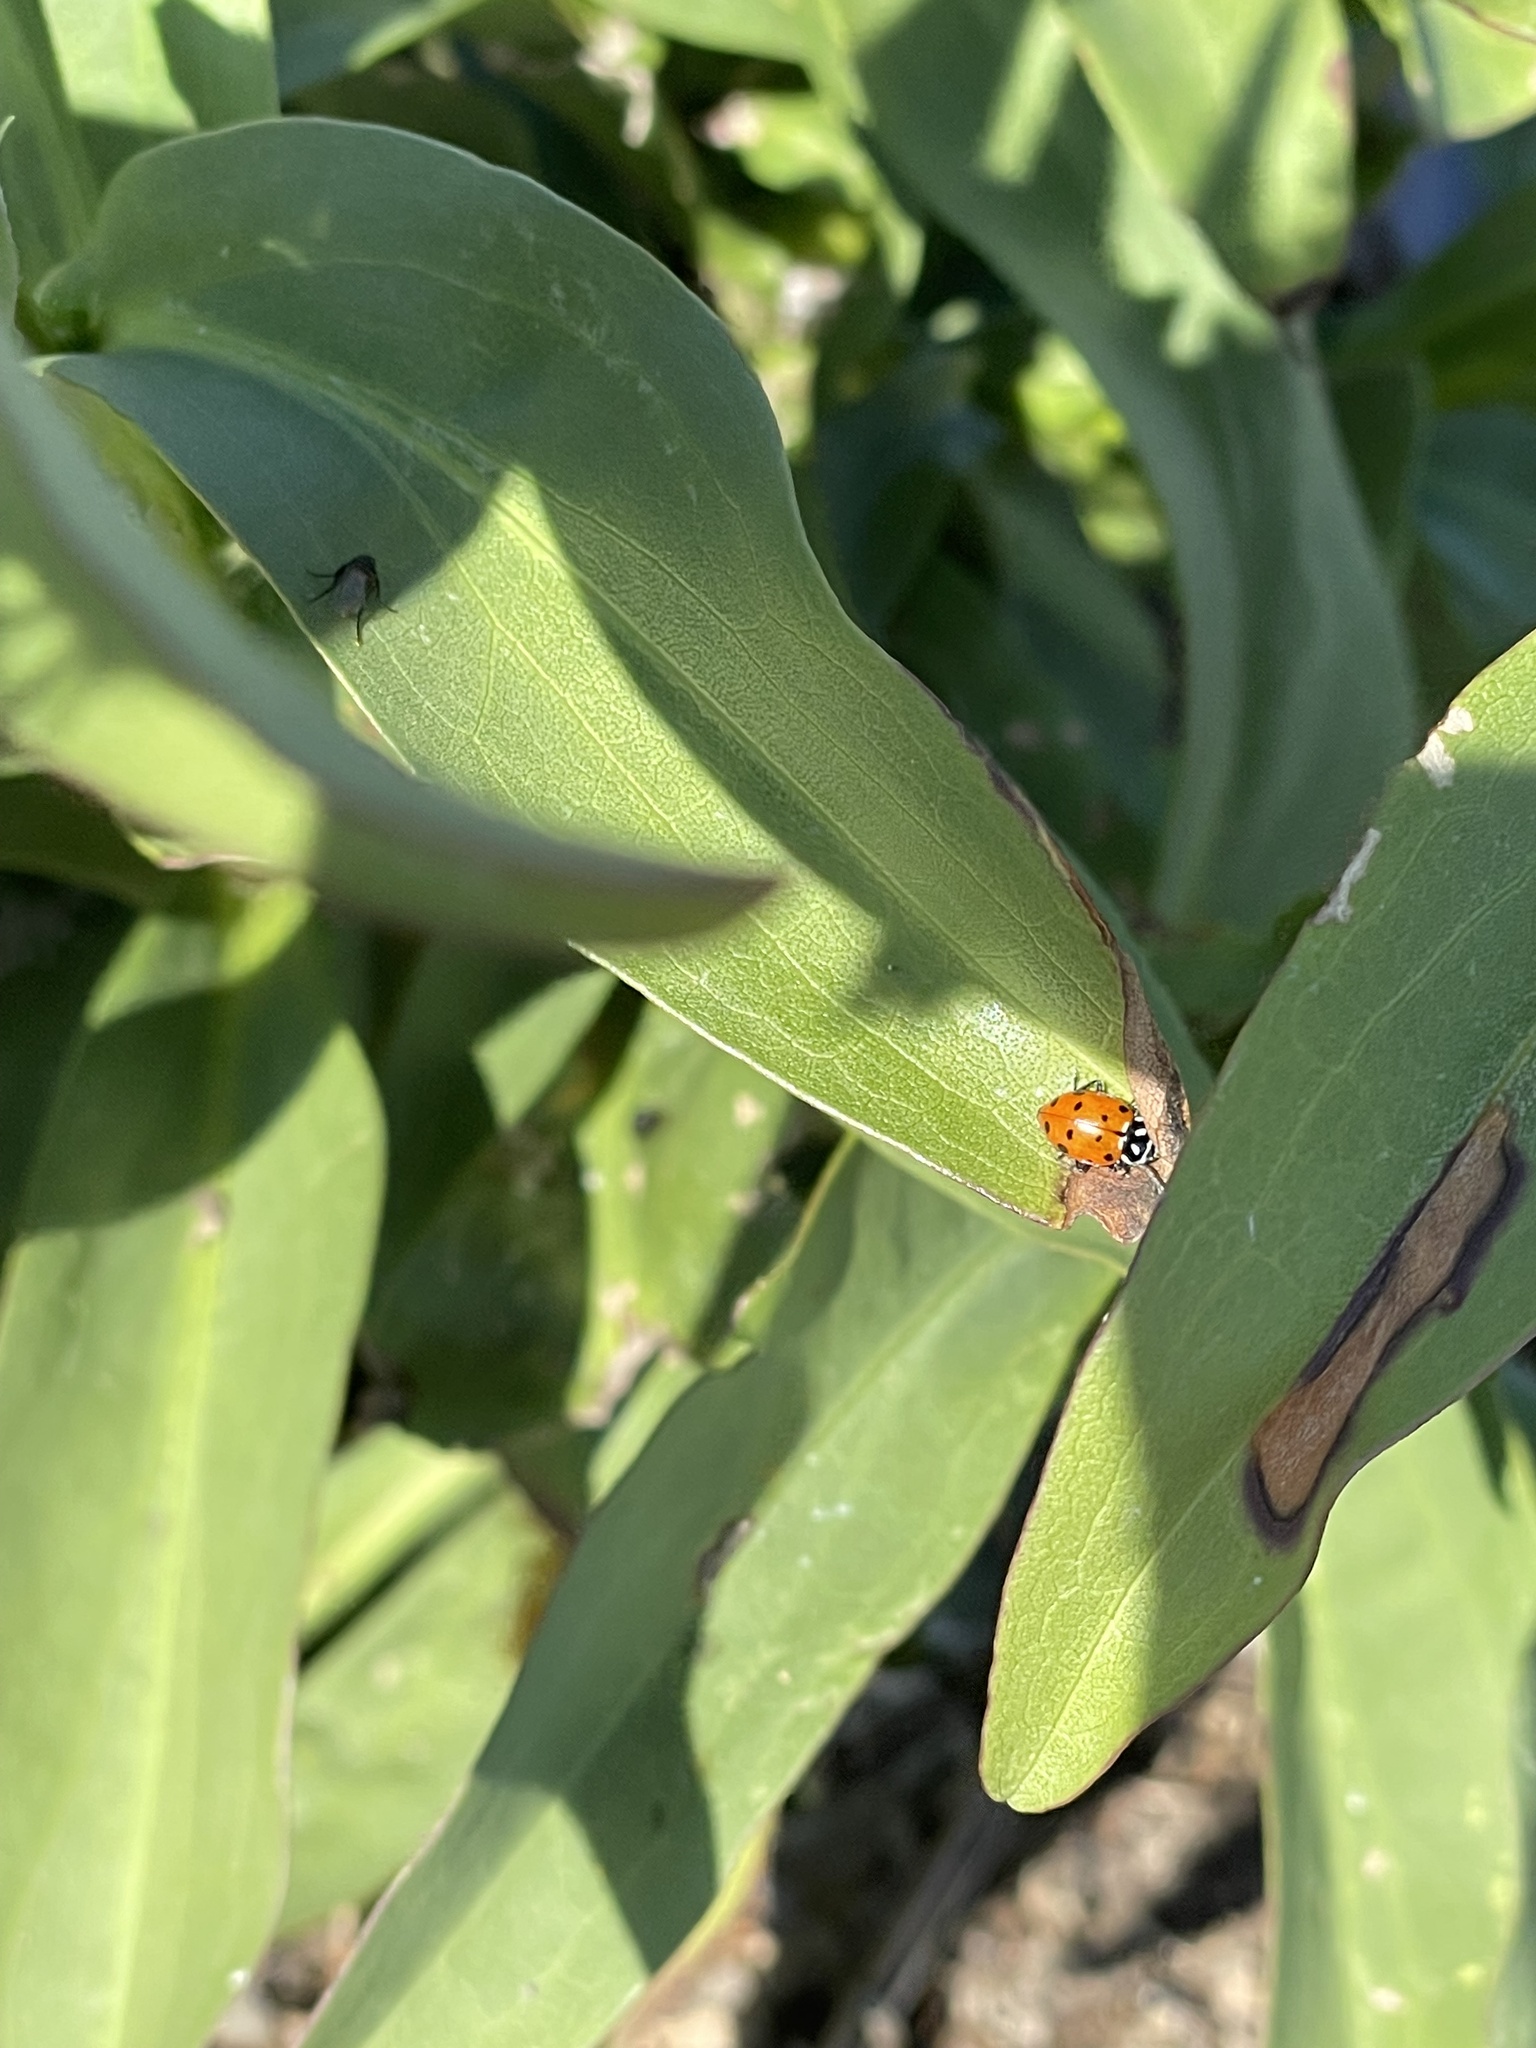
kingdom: Animalia
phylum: Arthropoda
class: Insecta
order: Coleoptera
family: Coccinellidae
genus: Hippodamia
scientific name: Hippodamia convergens
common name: Convergent lady beetle
